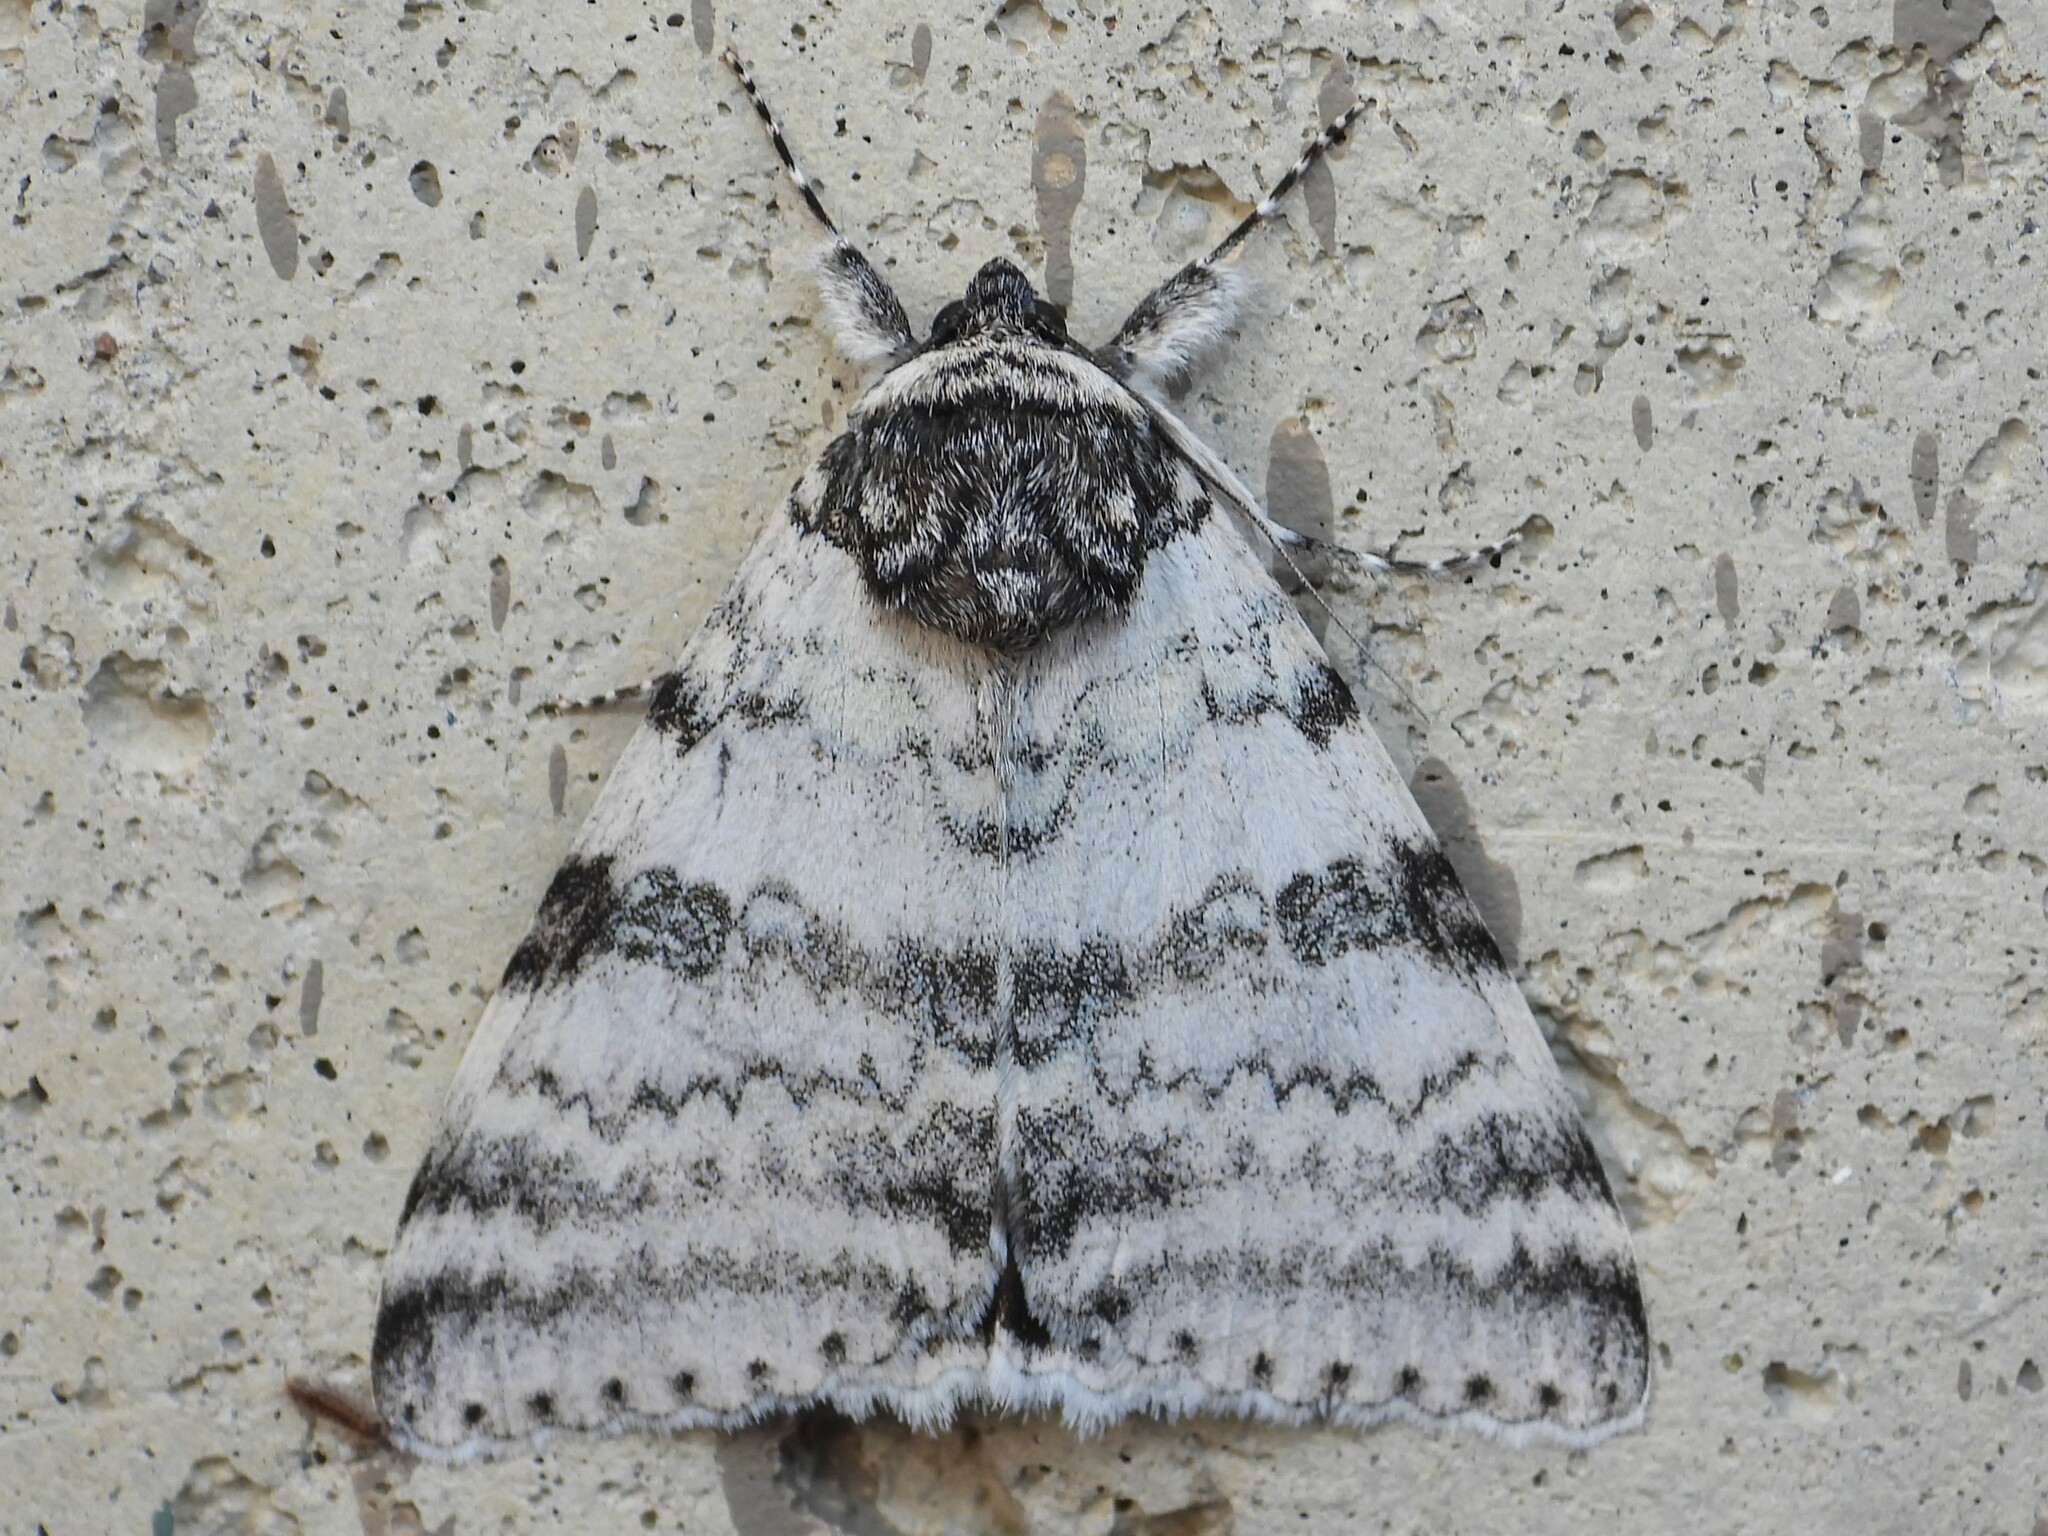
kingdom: Animalia
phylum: Arthropoda
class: Insecta
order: Lepidoptera
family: Erebidae
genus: Catocala
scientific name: Catocala relicta
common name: White underwing
